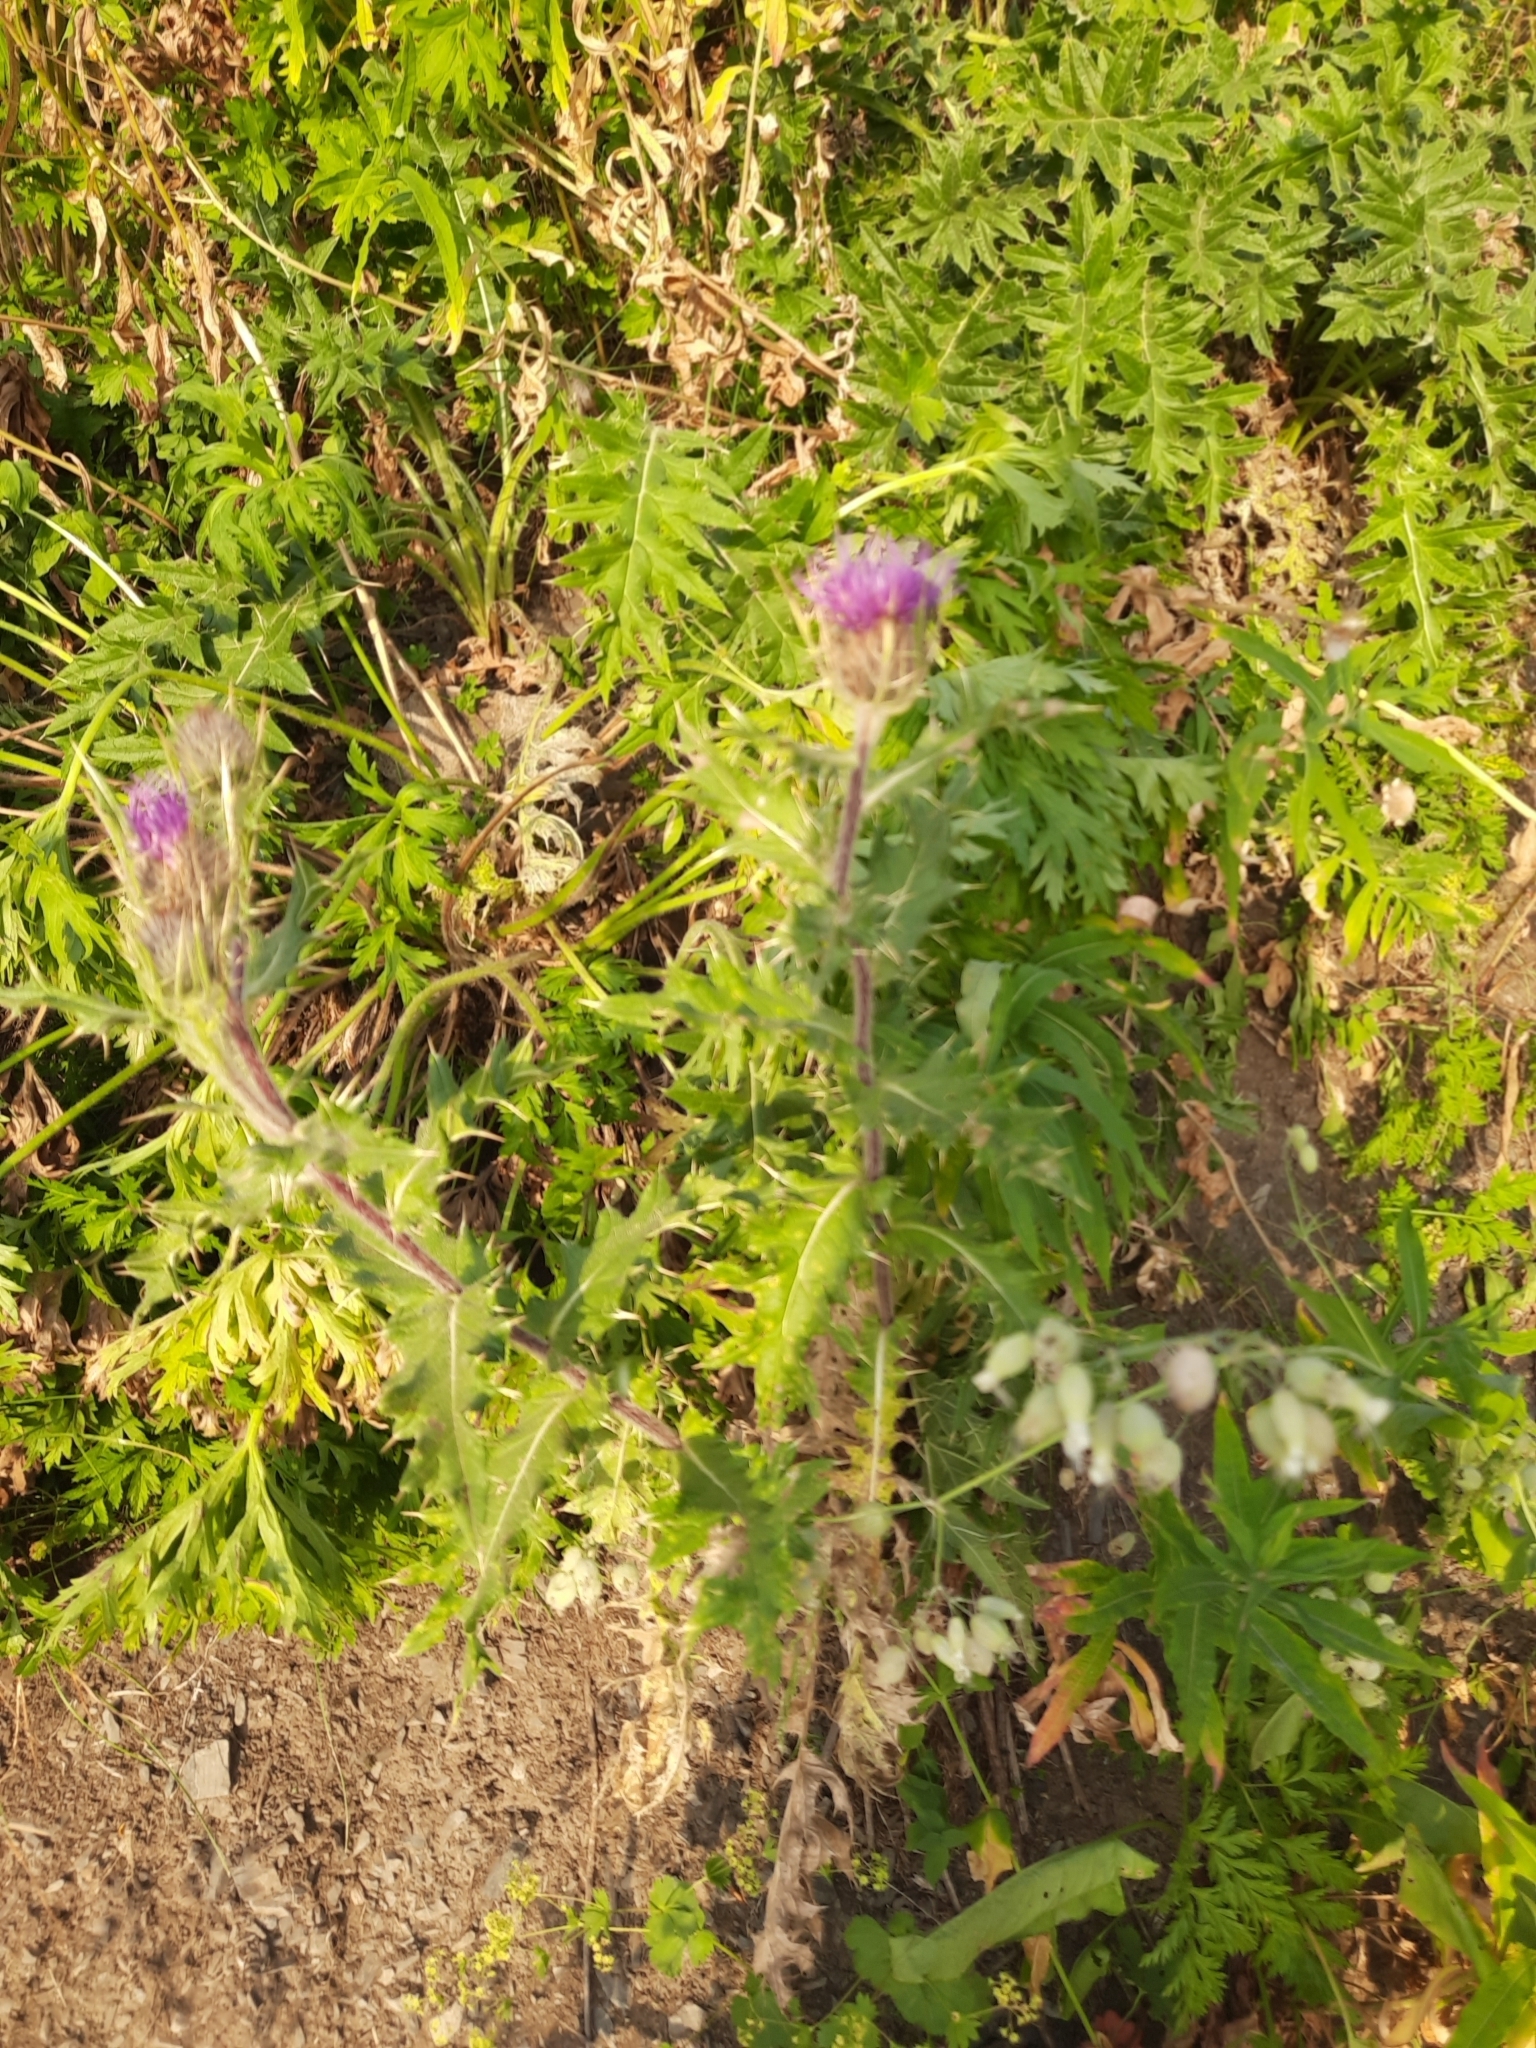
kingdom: Plantae
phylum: Tracheophyta
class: Magnoliopsida
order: Asterales
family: Asteraceae
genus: Cirsium
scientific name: Cirsium obvallatum
